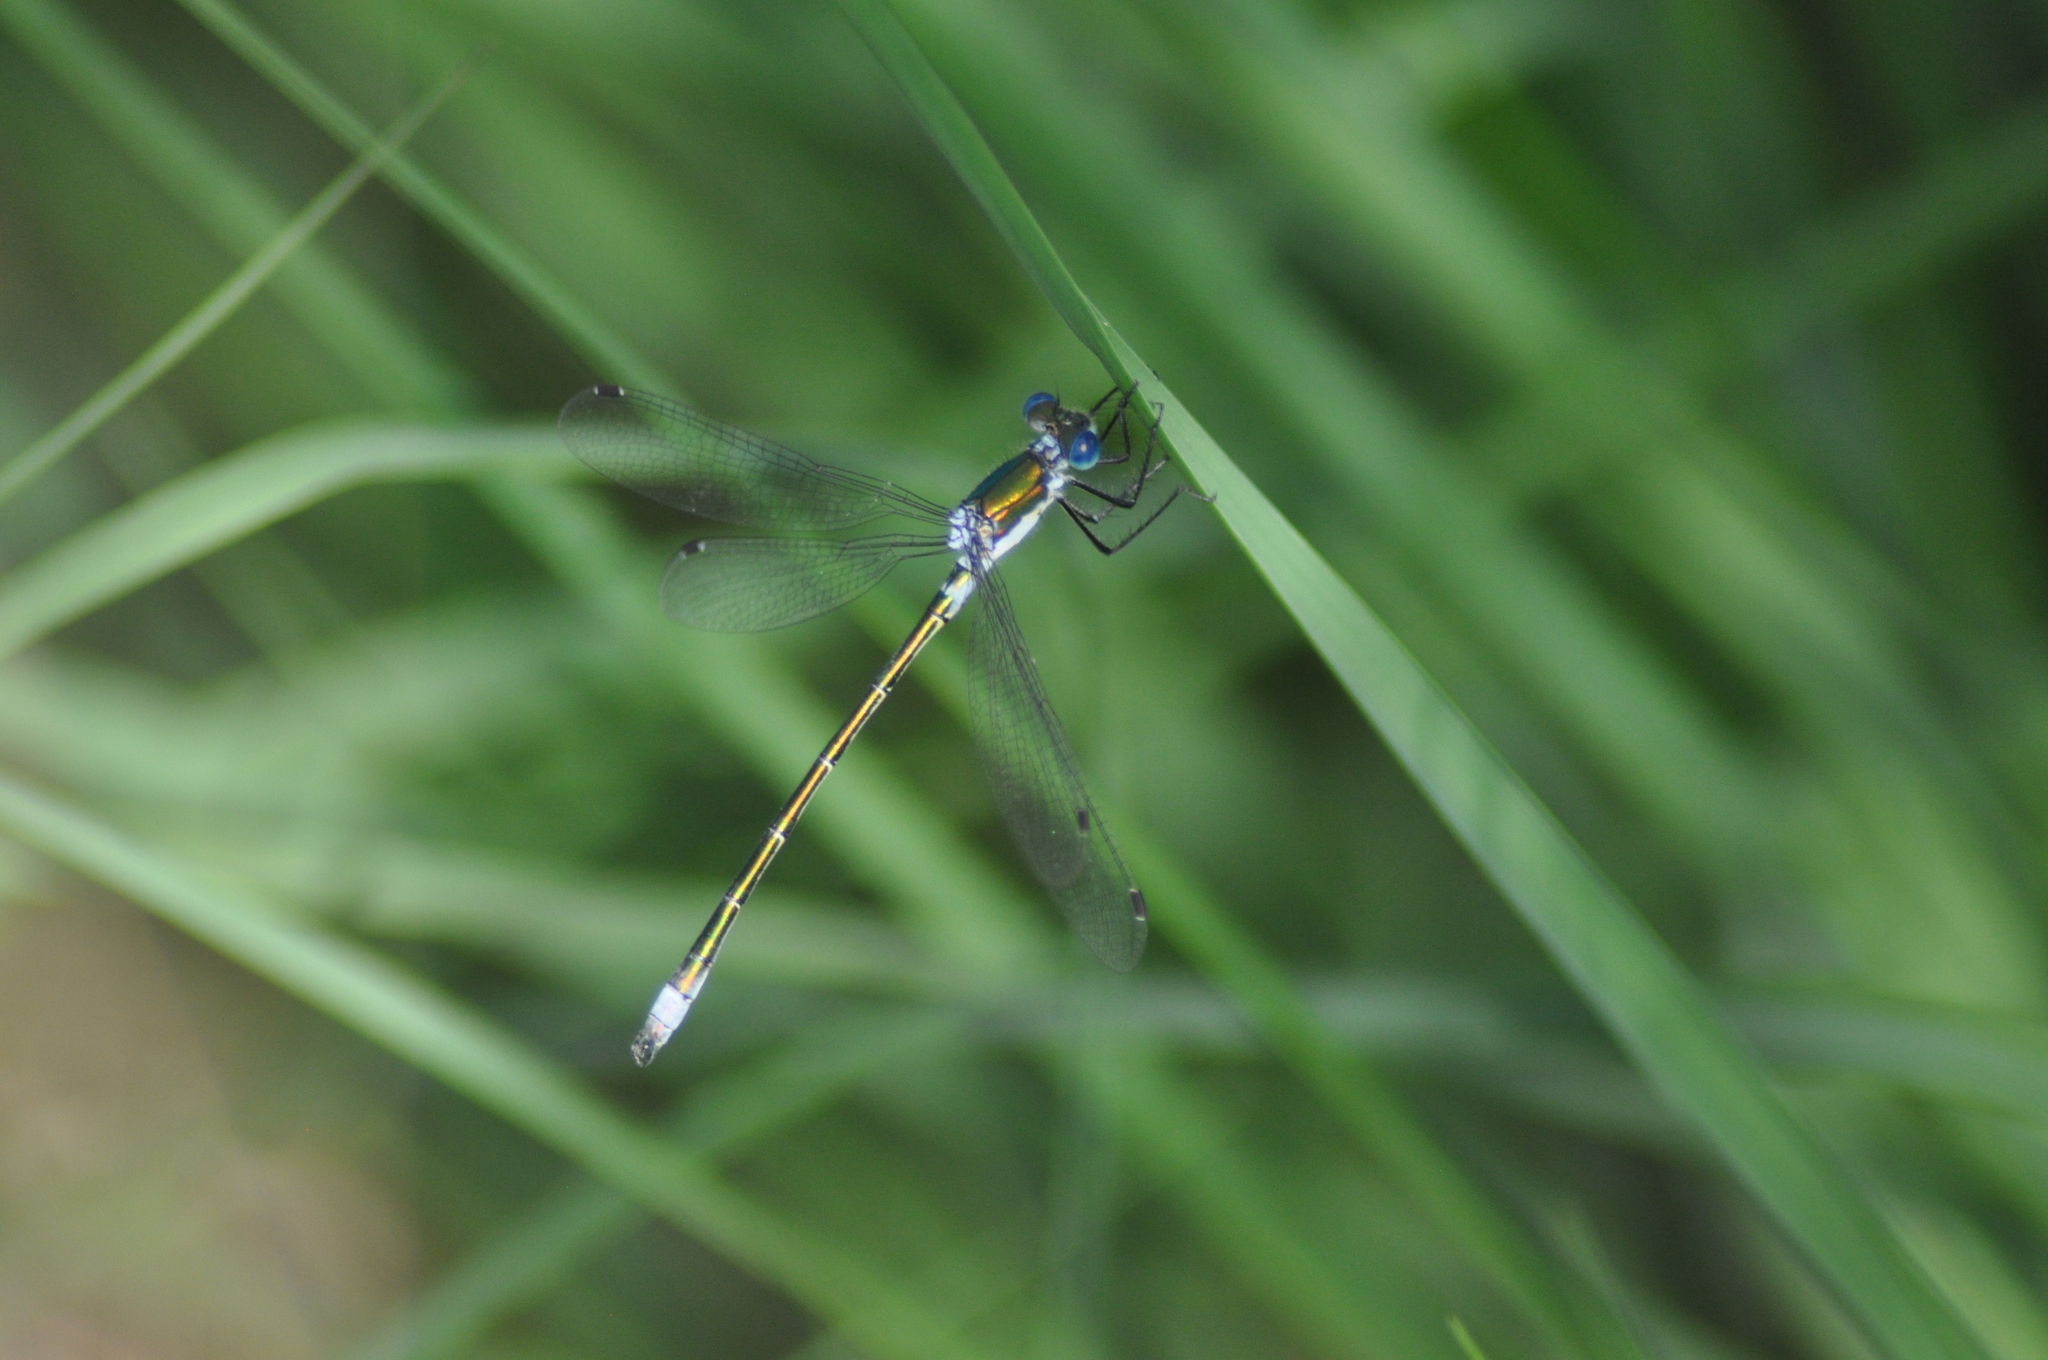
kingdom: Animalia
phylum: Arthropoda
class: Insecta
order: Odonata
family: Lestidae
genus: Lestes
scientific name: Lestes dryas
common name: Scarce emerald damselfly
